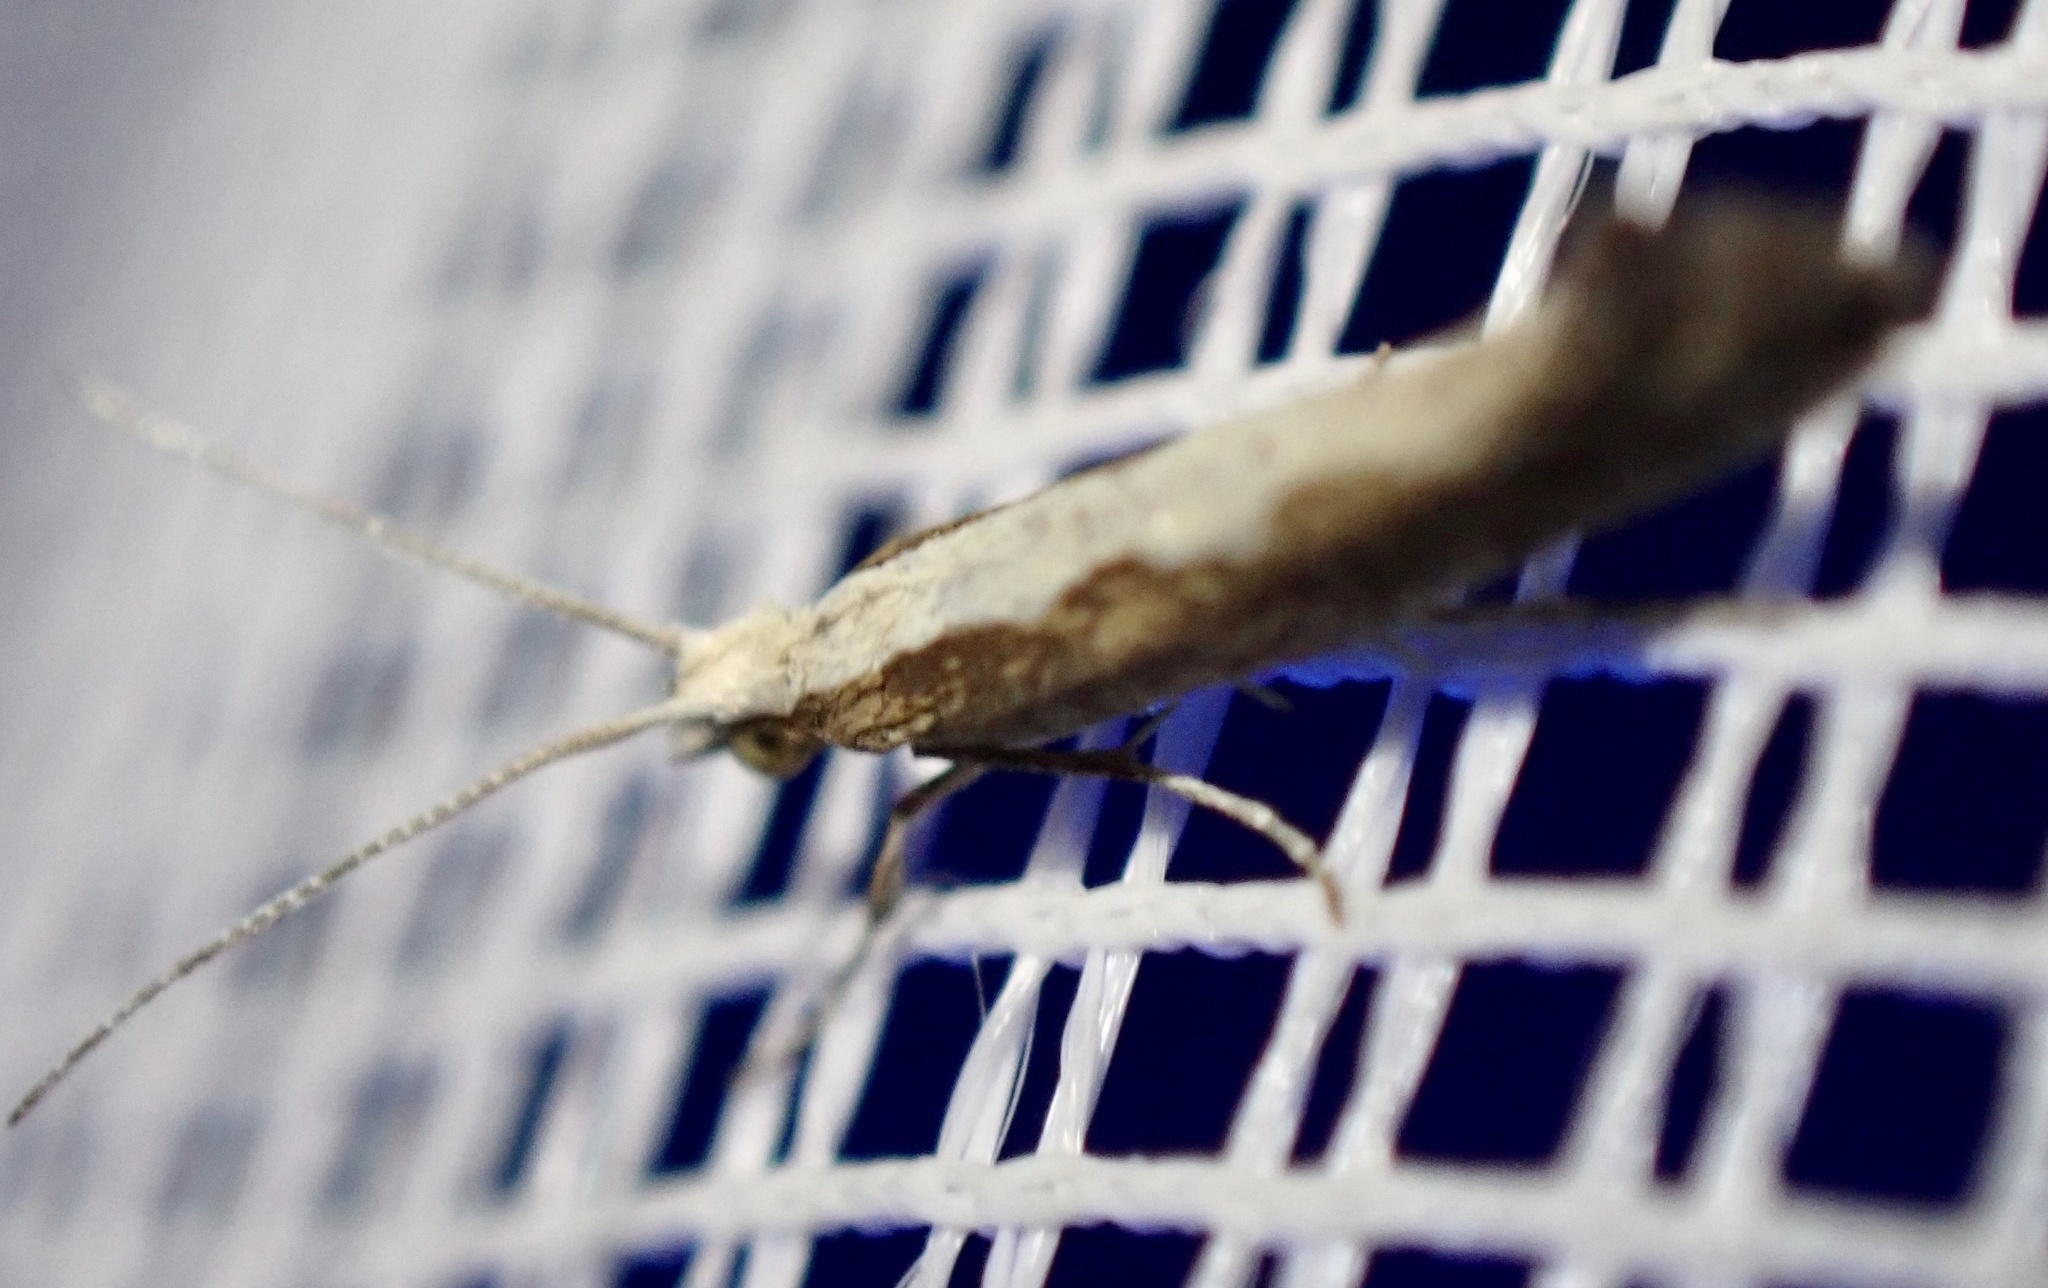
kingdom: Animalia
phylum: Arthropoda
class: Insecta
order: Lepidoptera
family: Plutellidae
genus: Plutella
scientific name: Plutella xylostella
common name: Diamond-back moth
